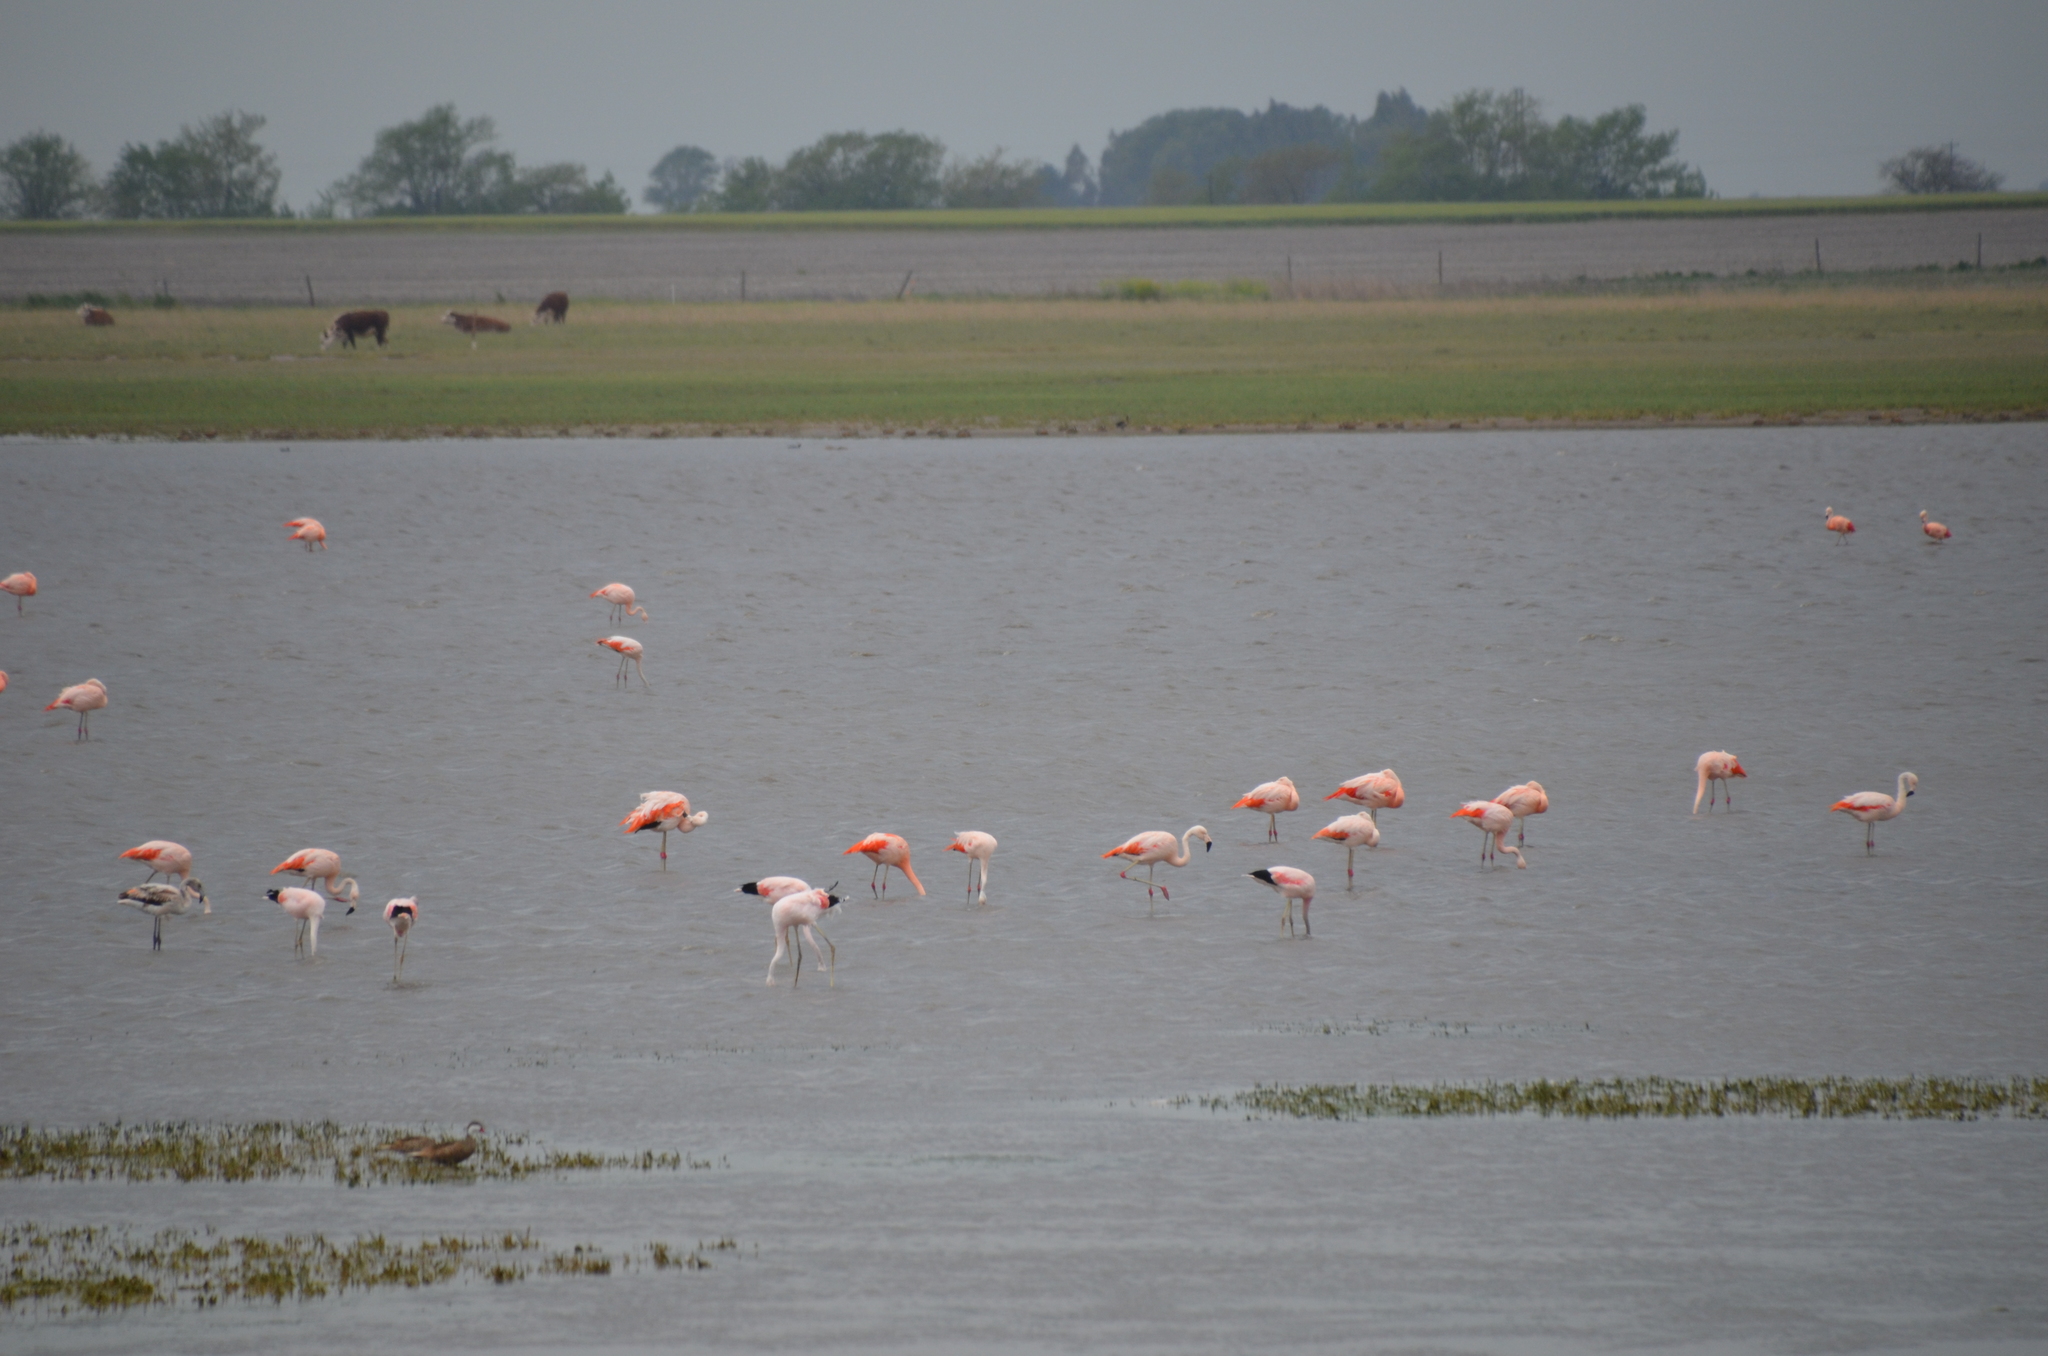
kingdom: Animalia
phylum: Chordata
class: Aves
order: Phoenicopteriformes
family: Phoenicopteridae
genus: Phoenicopterus
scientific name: Phoenicopterus chilensis
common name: Chilean flamingo
